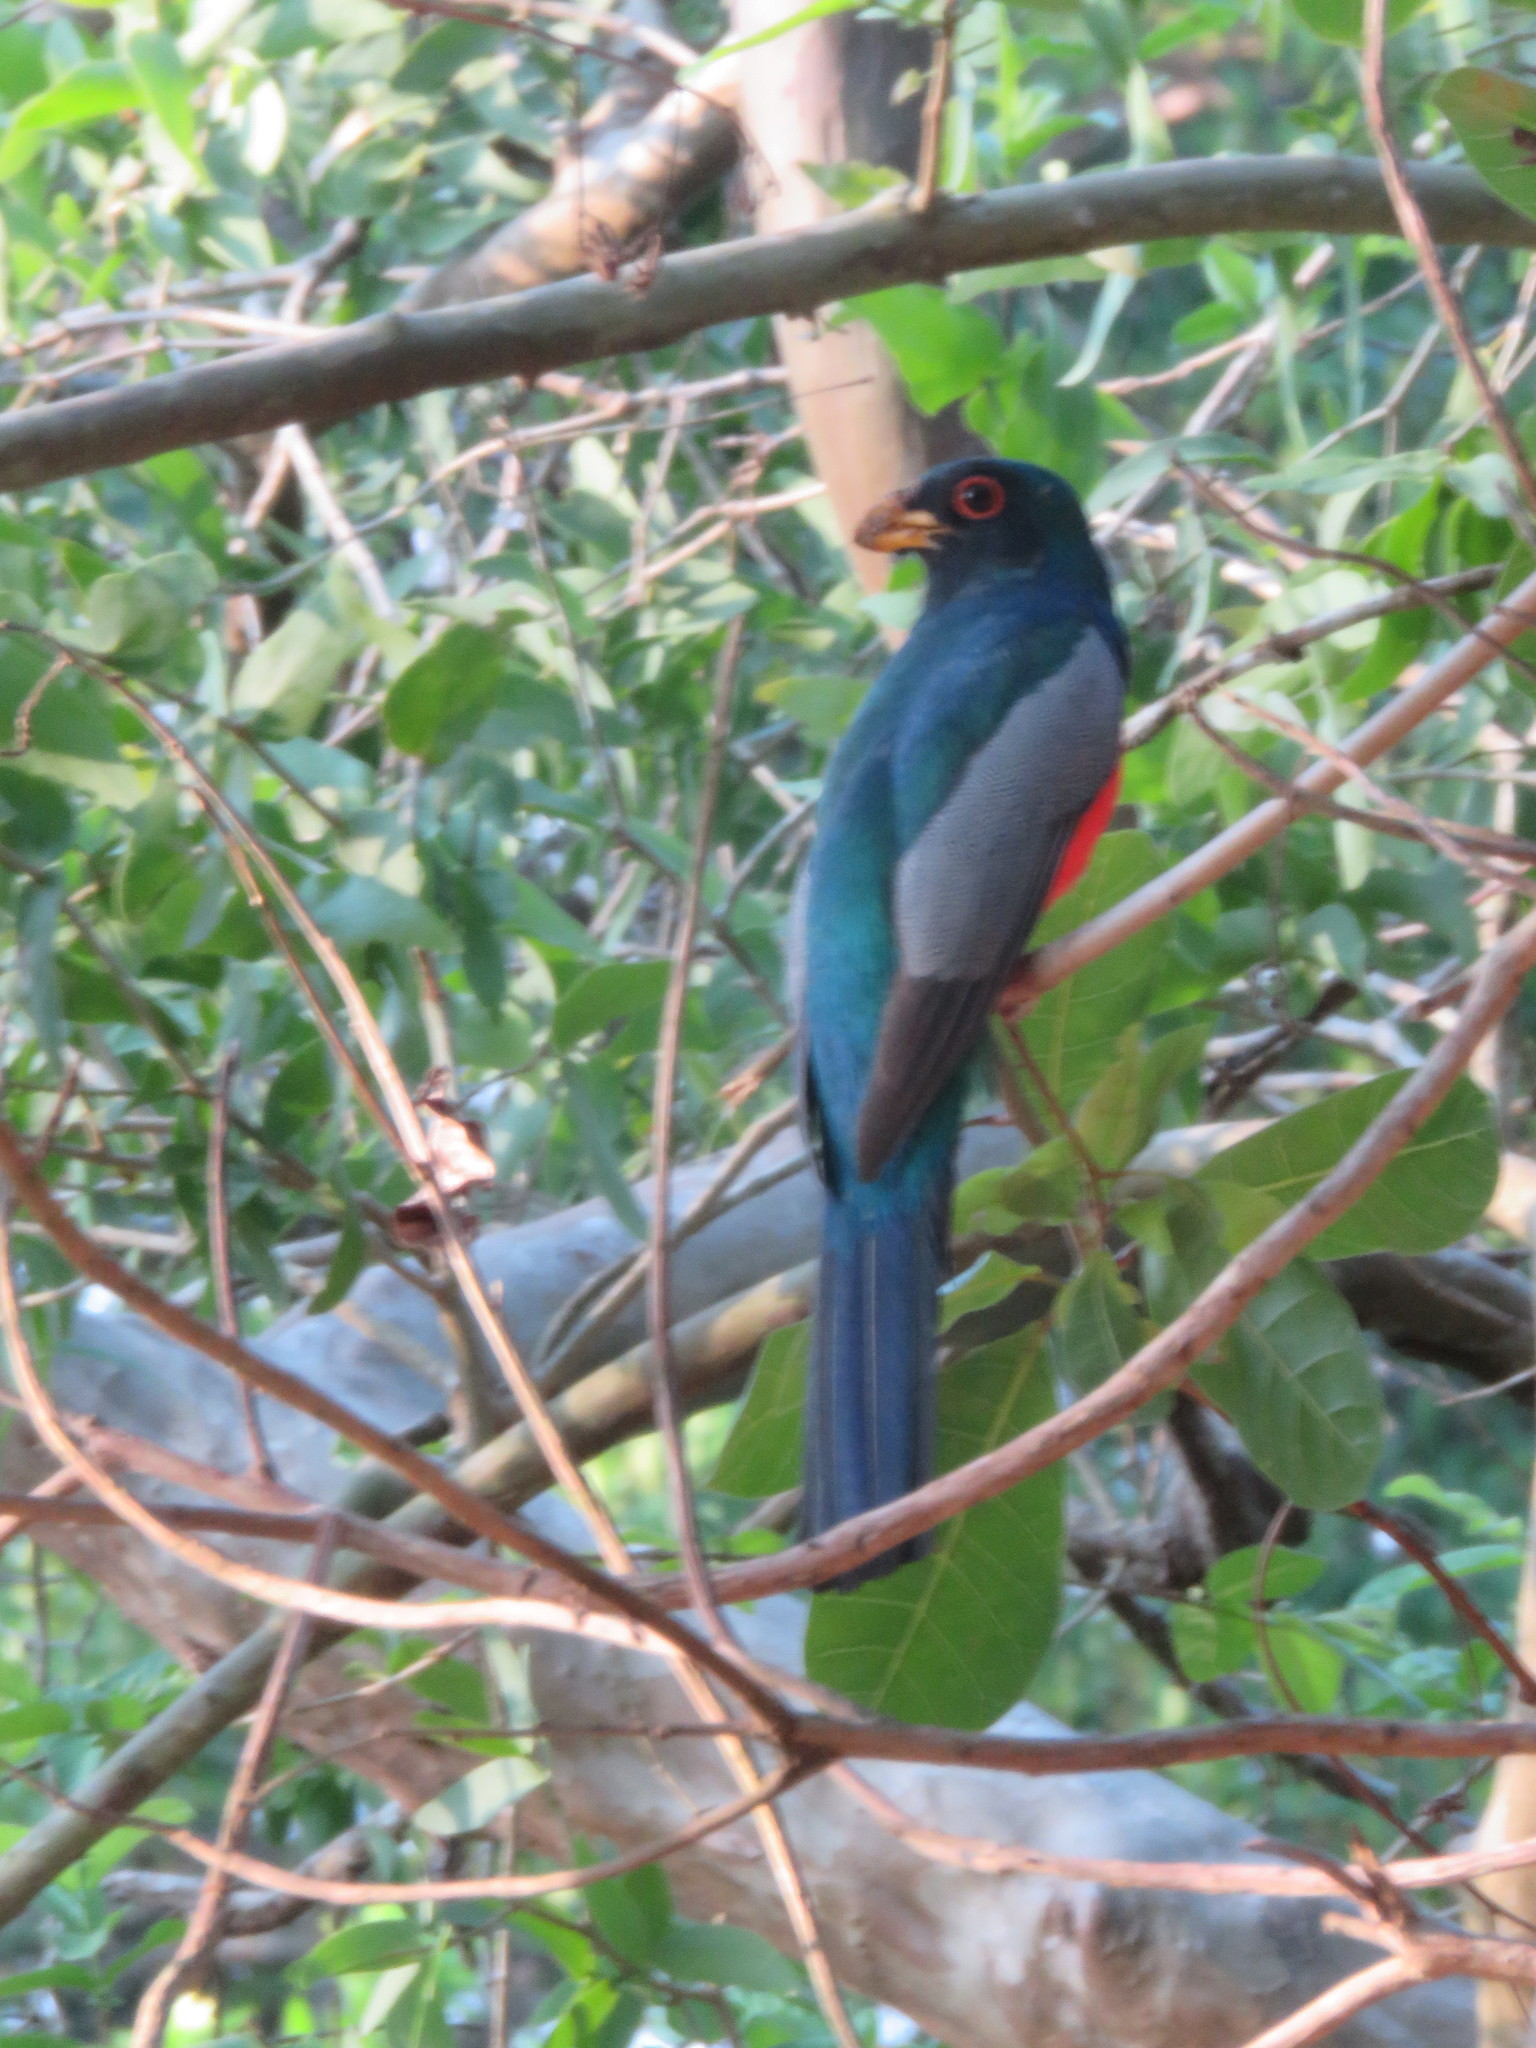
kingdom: Animalia
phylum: Chordata
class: Aves
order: Trogoniformes
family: Trogonidae
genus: Trogon
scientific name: Trogon melanurus
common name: Black-tailed trogon
